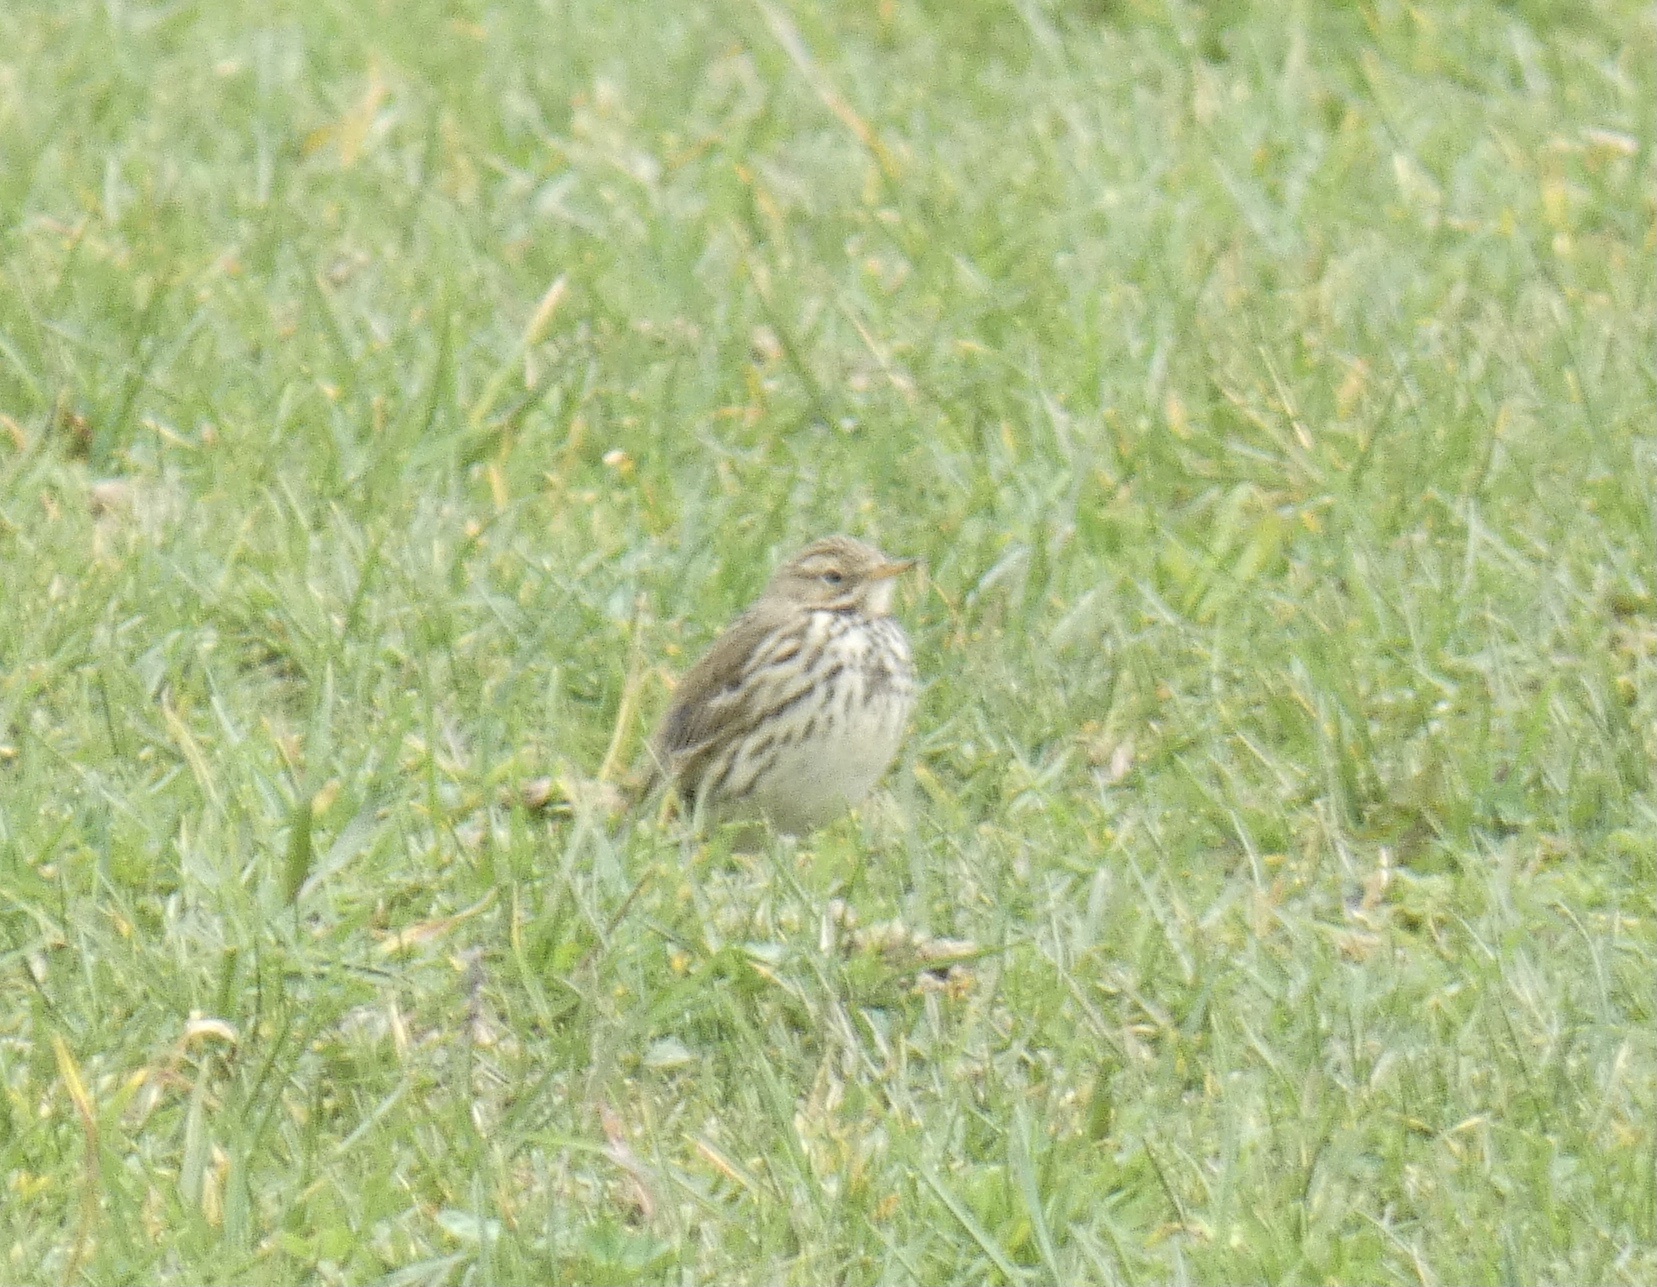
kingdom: Animalia
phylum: Chordata
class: Aves
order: Passeriformes
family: Motacillidae
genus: Anthus
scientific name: Anthus pratensis
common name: Meadow pipit
